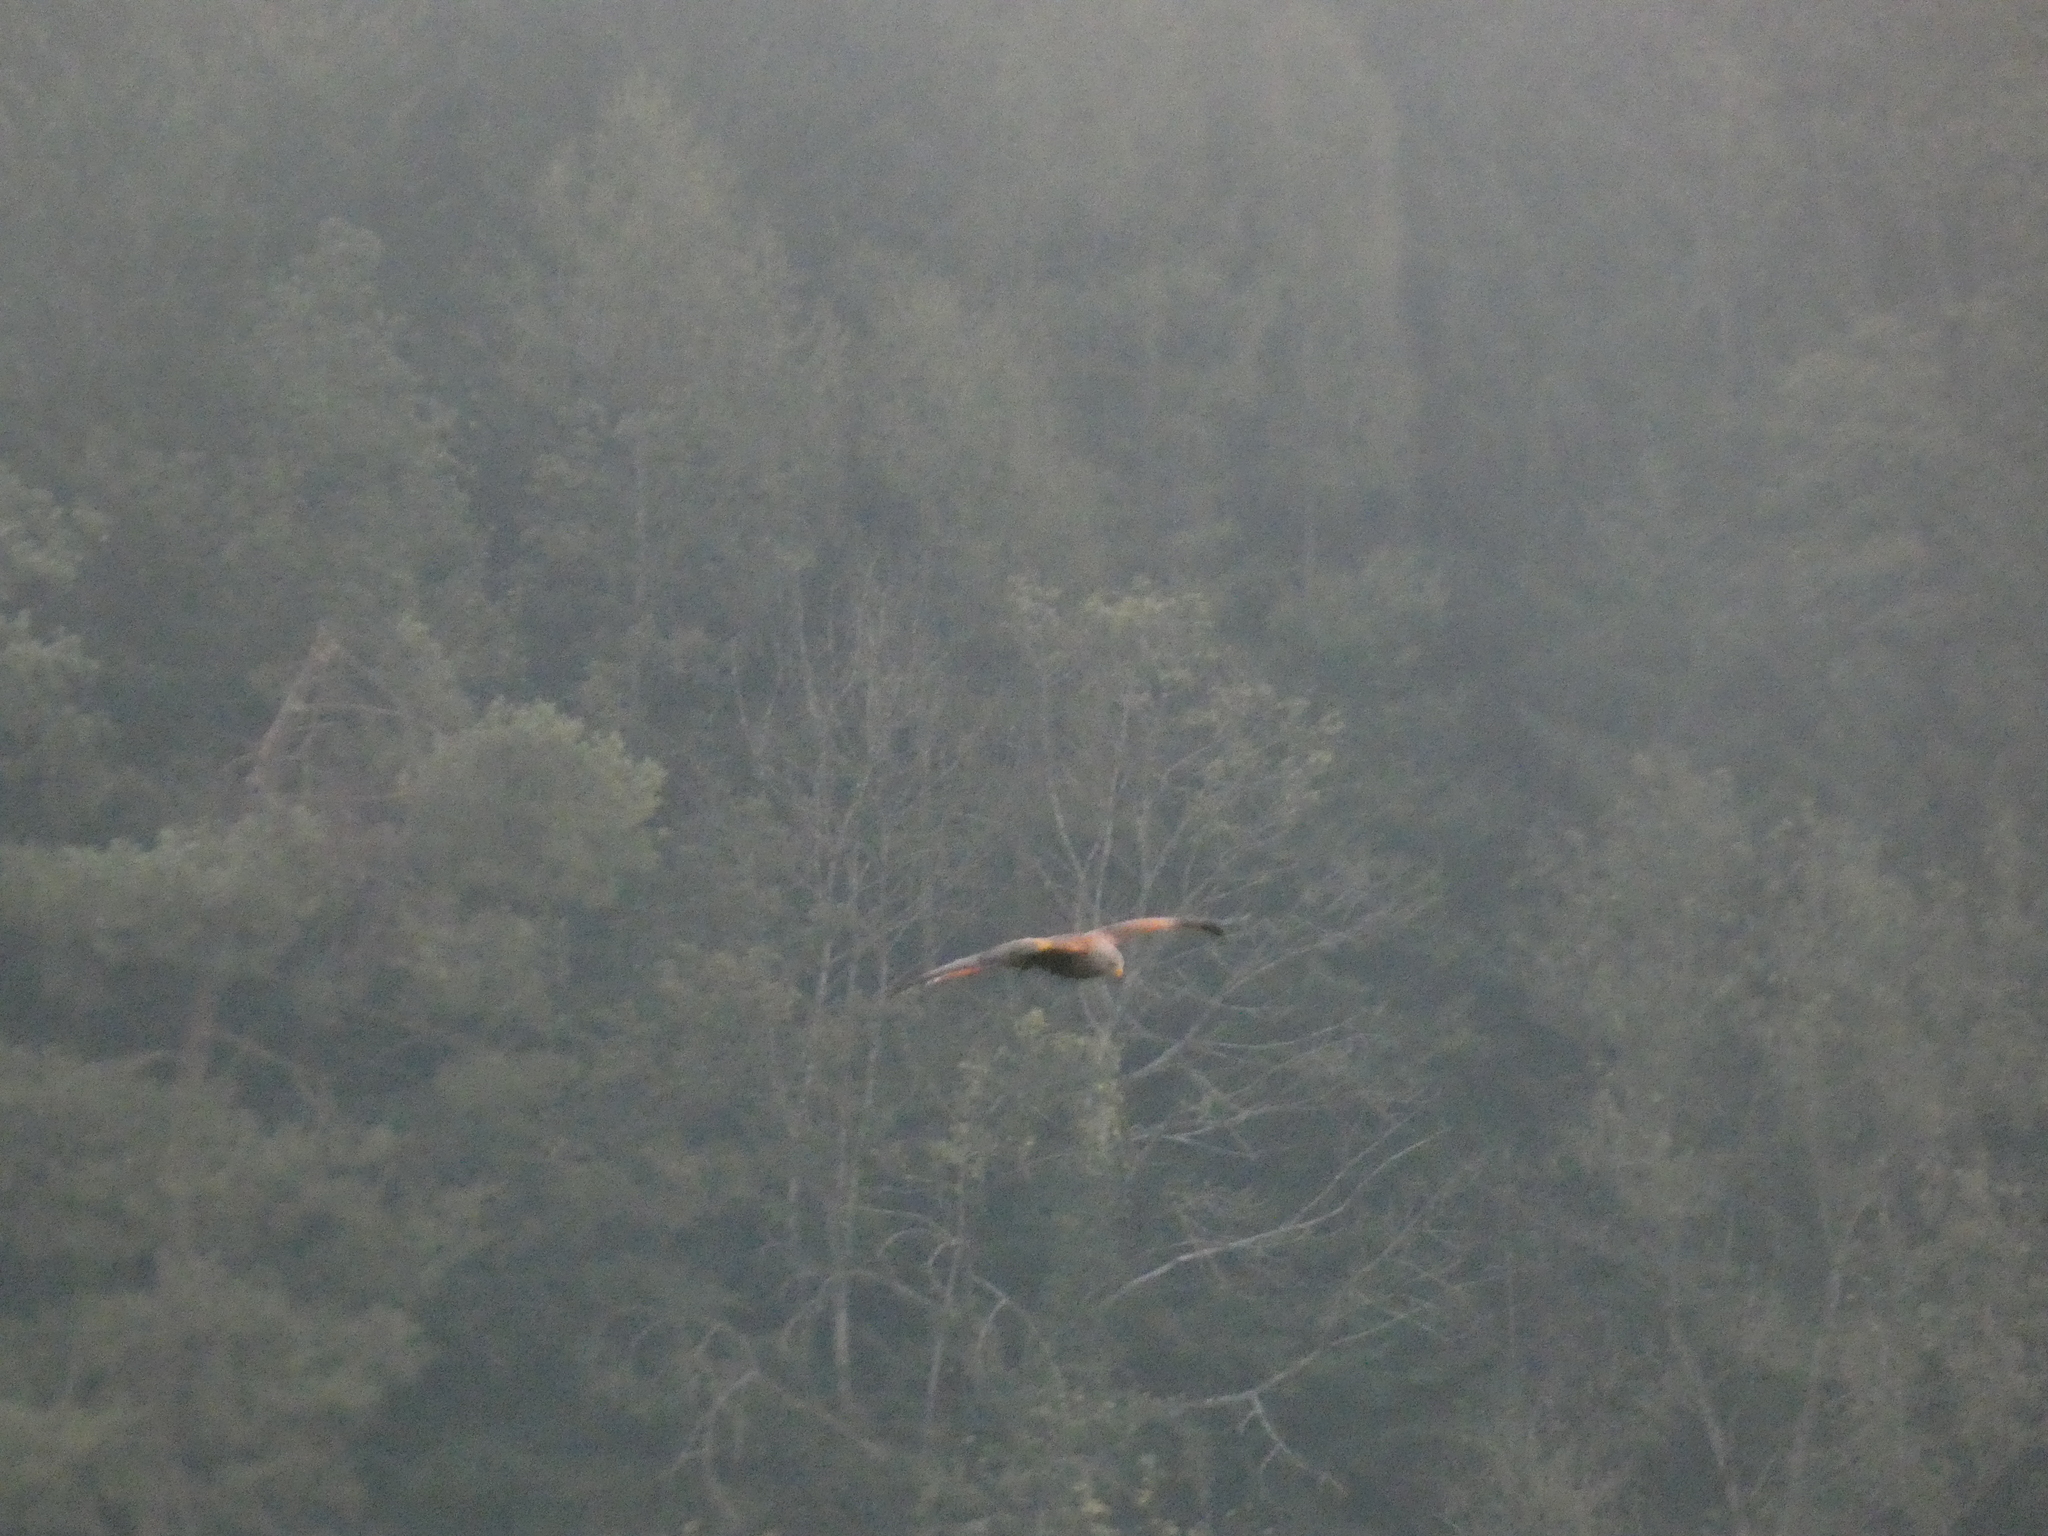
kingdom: Animalia
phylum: Chordata
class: Aves
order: Accipitriformes
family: Accipitridae
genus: Milvus
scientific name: Milvus milvus
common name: Red kite
